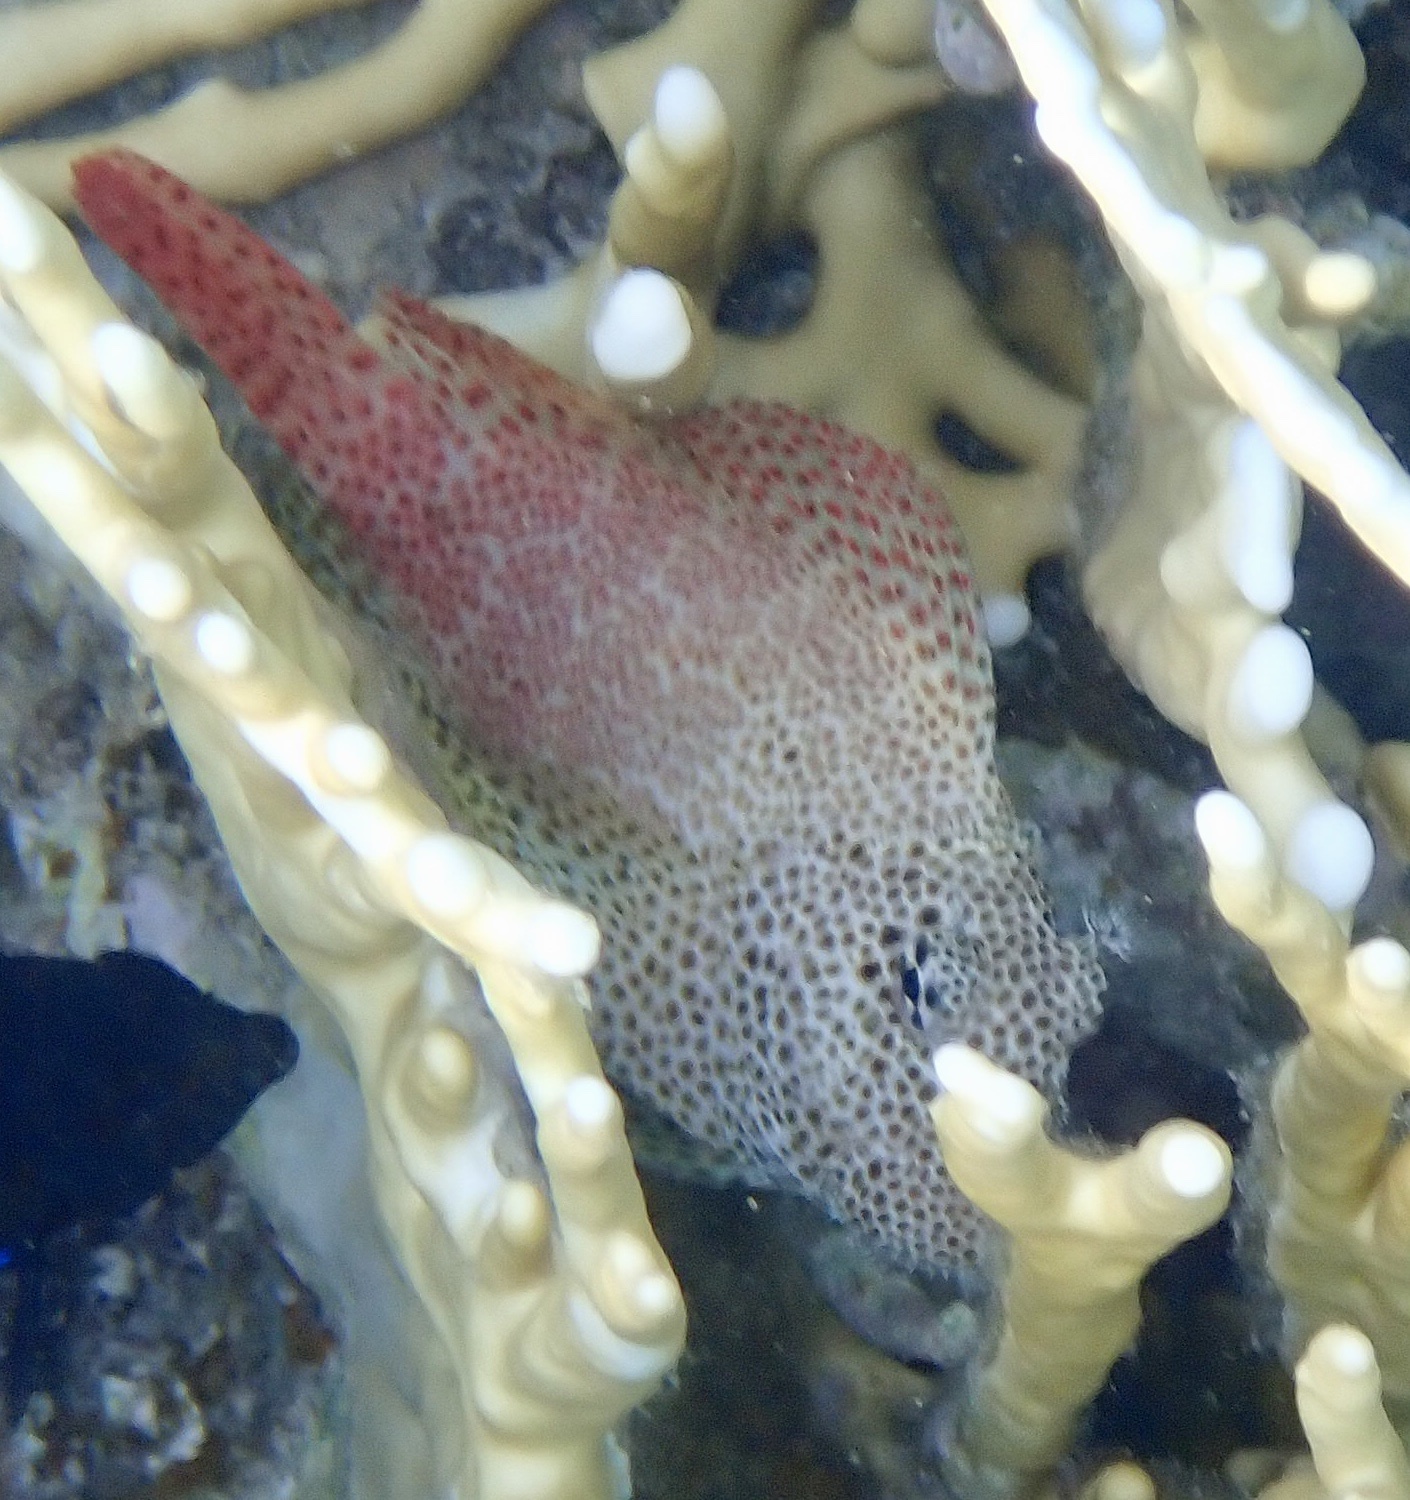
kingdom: Animalia
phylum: Chordata
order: Perciformes
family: Blenniidae
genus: Exallias
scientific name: Exallias brevis
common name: Leopard blenny
